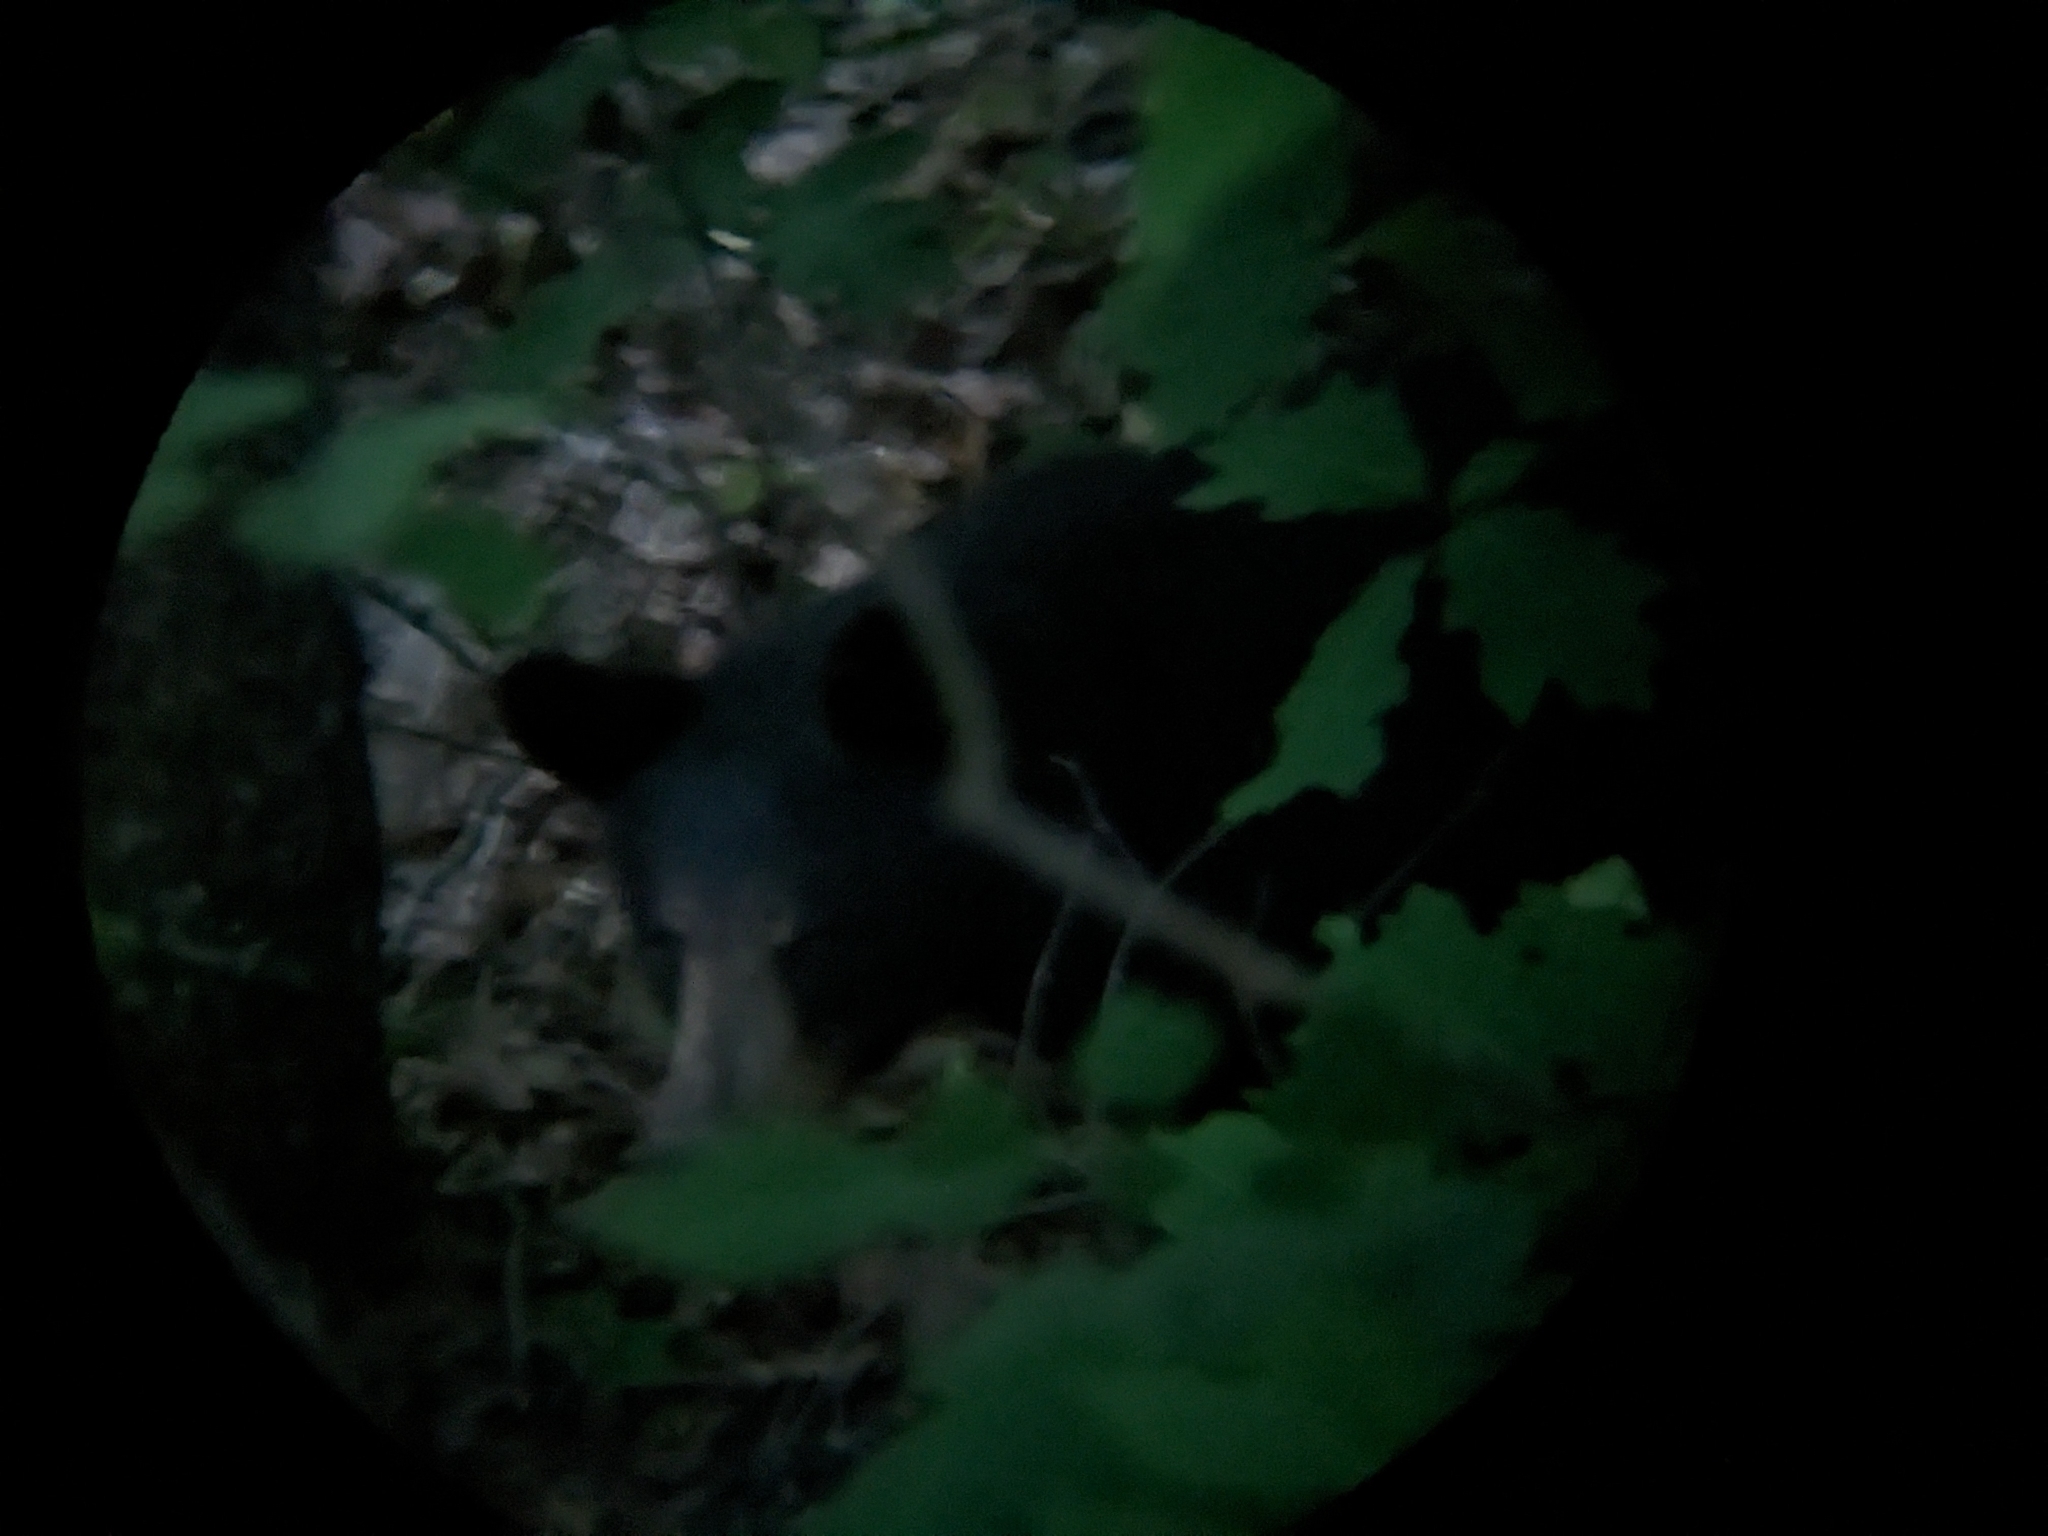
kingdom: Animalia
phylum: Chordata
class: Mammalia
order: Carnivora
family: Ursidae
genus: Ursus
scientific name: Ursus americanus
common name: American black bear
